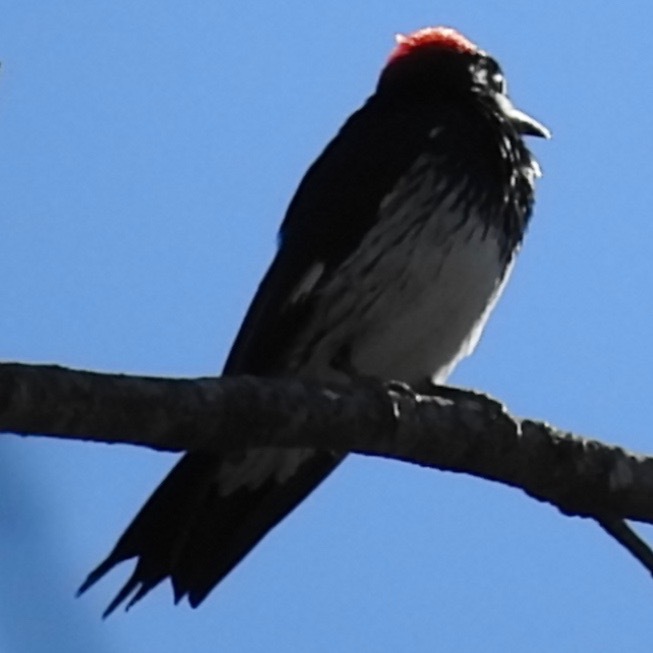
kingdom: Animalia
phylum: Chordata
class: Aves
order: Piciformes
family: Picidae
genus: Melanerpes
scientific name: Melanerpes formicivorus
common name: Acorn woodpecker
